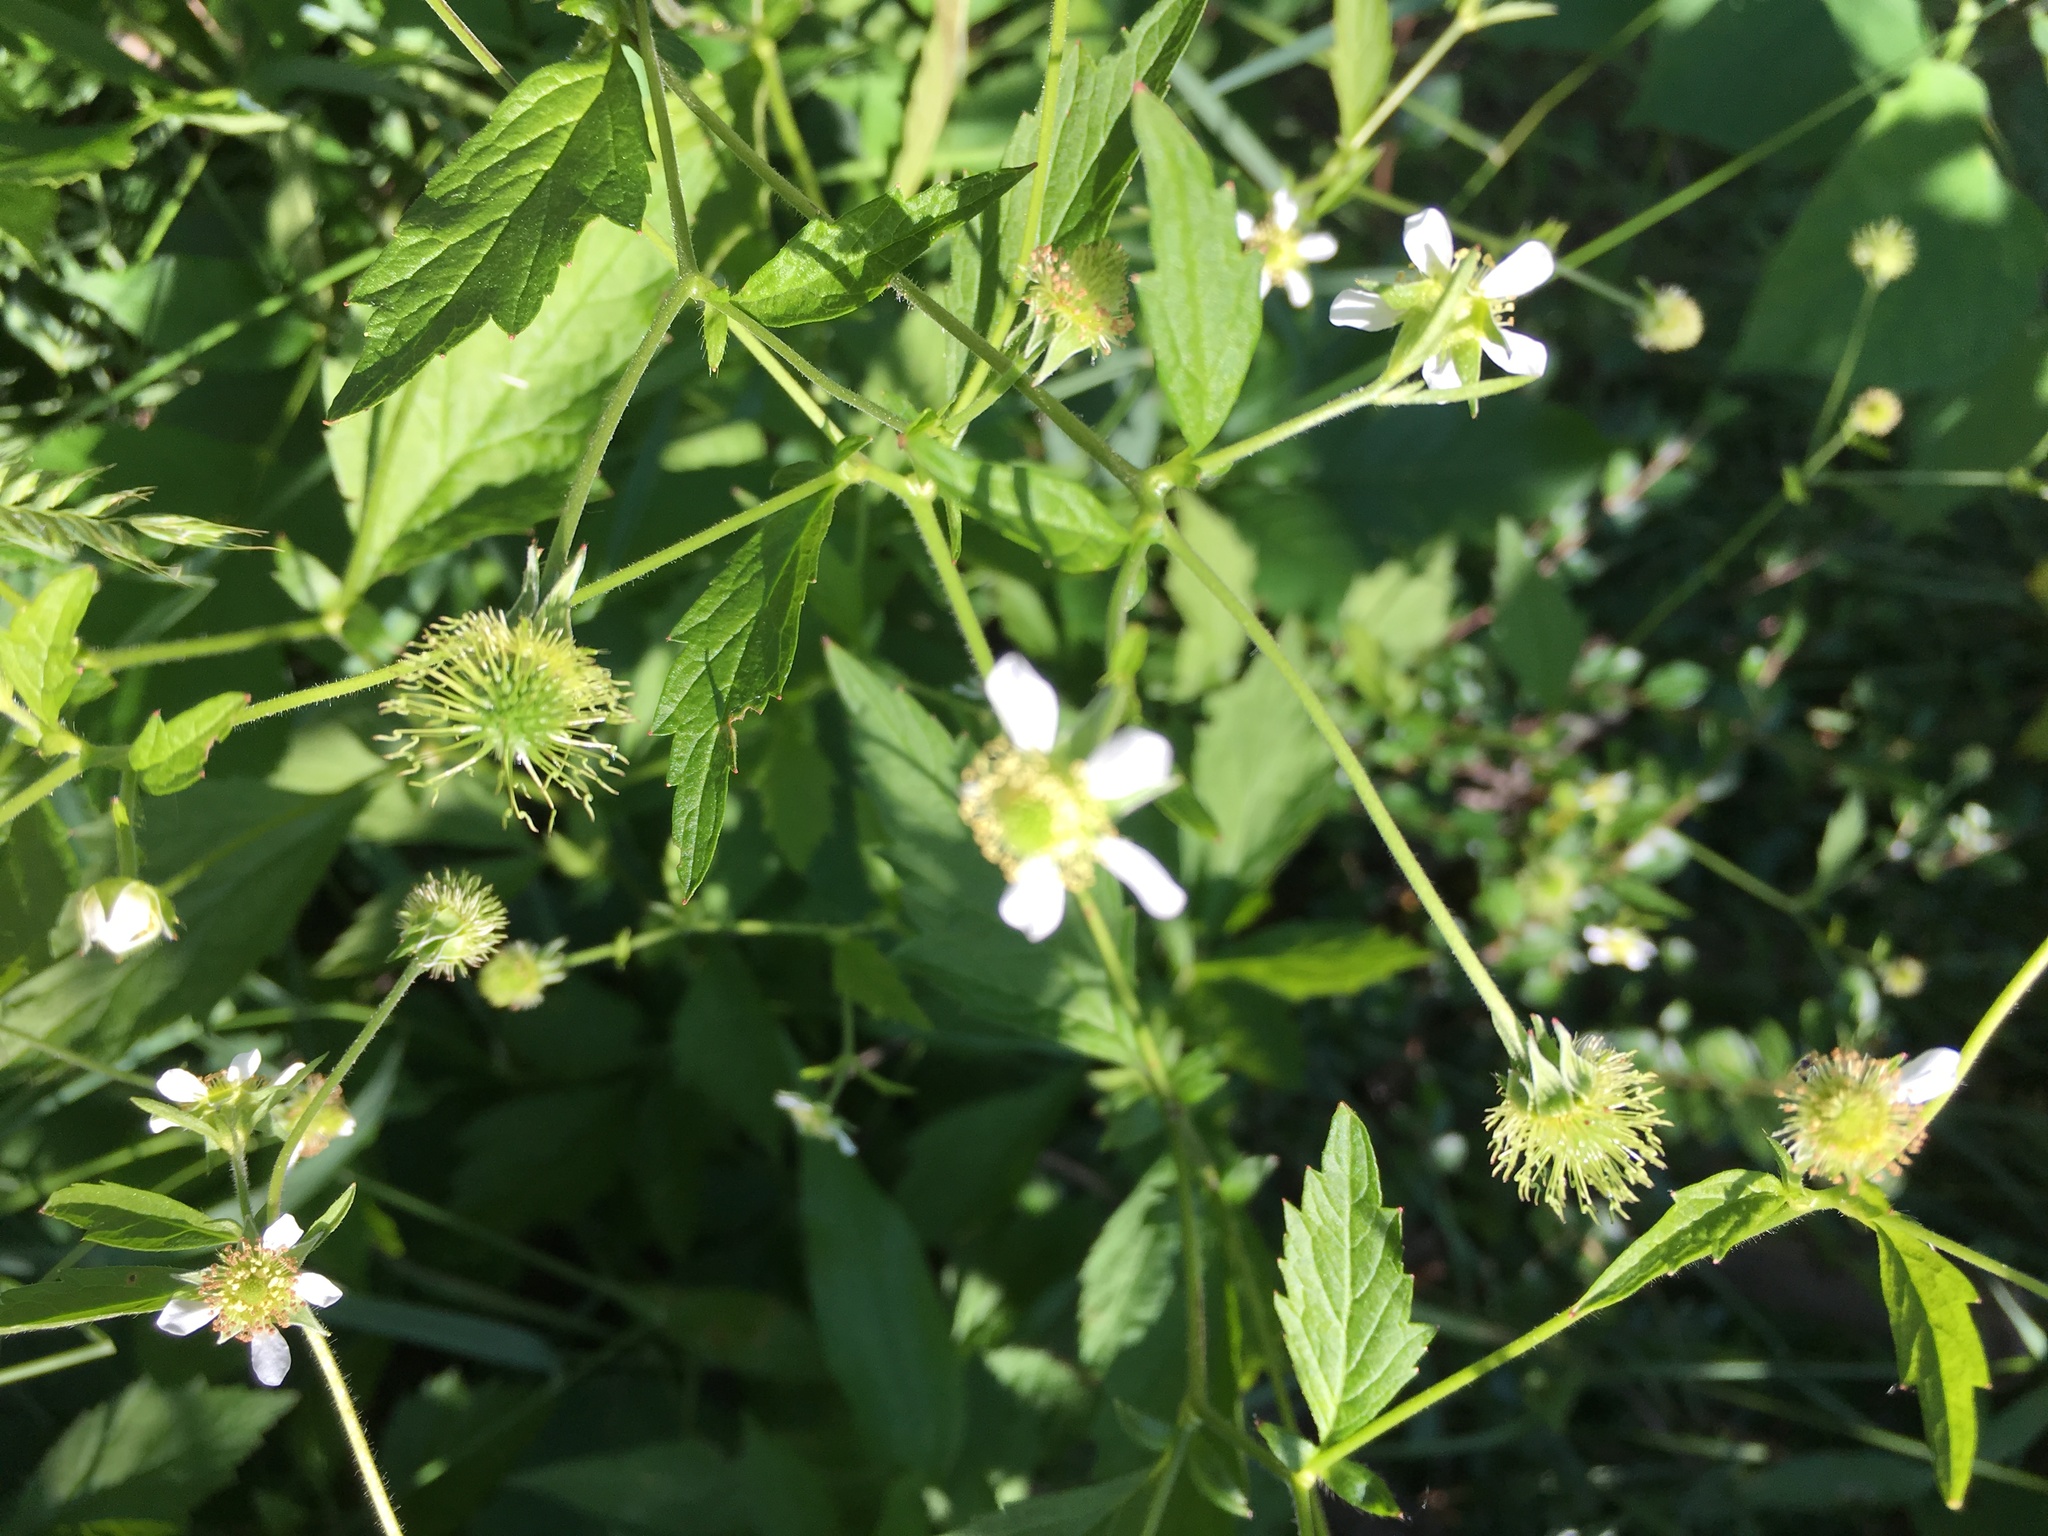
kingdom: Plantae
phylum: Tracheophyta
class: Magnoliopsida
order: Rosales
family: Rosaceae
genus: Geum
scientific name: Geum canadense
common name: White avens
